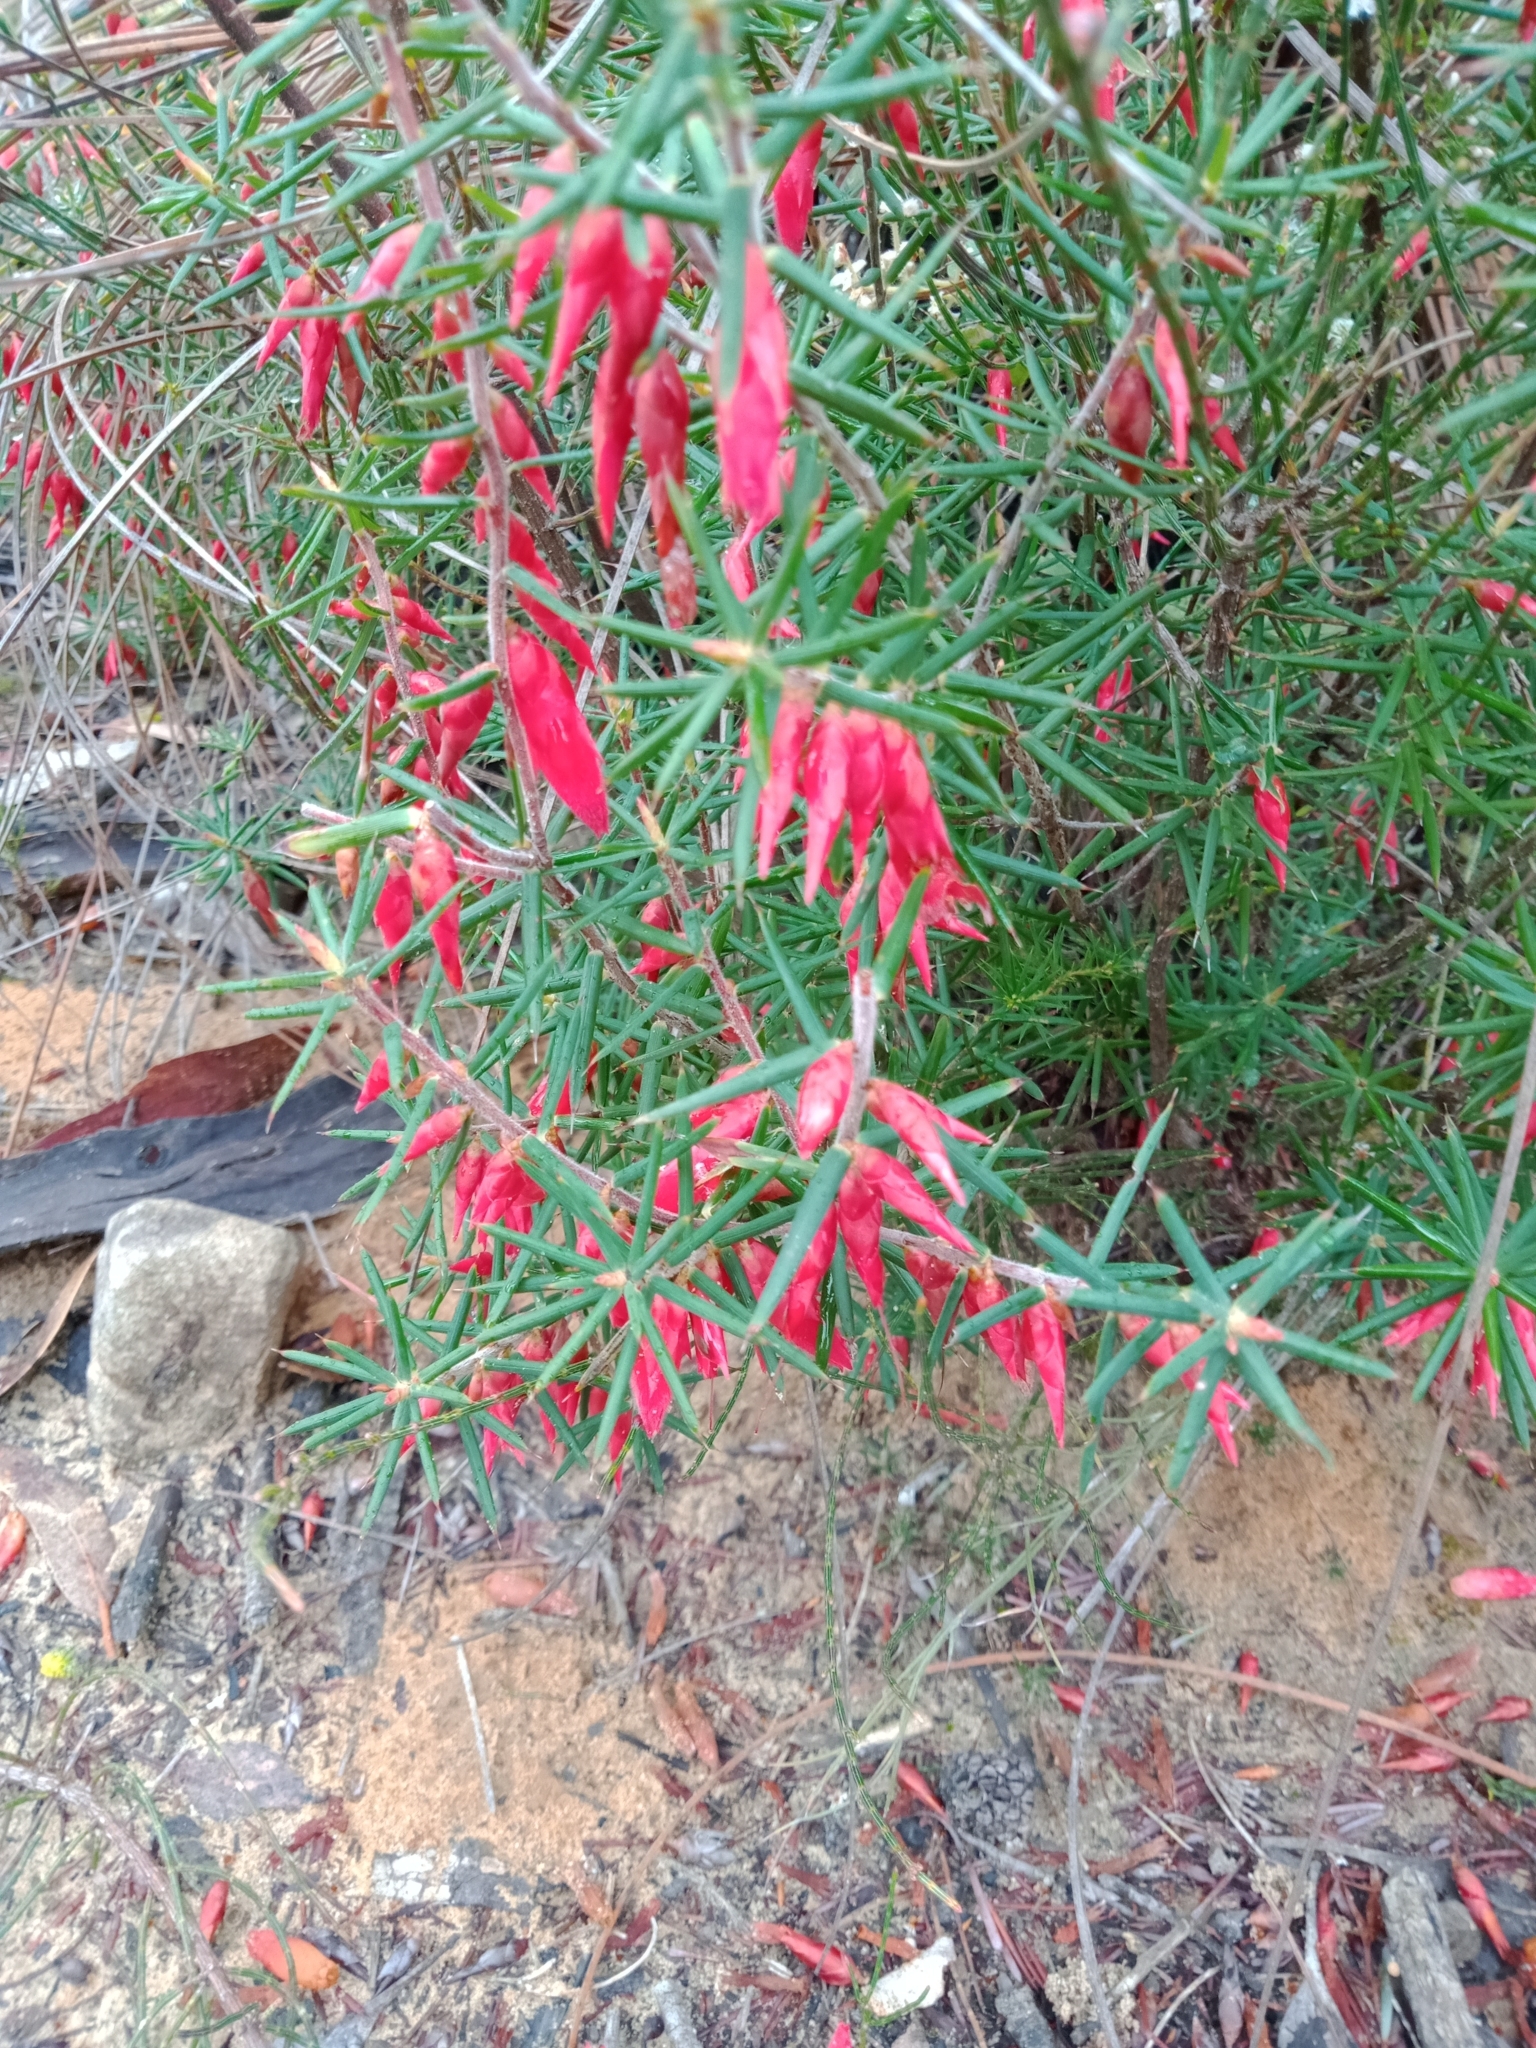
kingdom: Plantae
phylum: Tracheophyta
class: Magnoliopsida
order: Ericales
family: Ericaceae
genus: Stenanthera
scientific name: Stenanthera conostephioides
